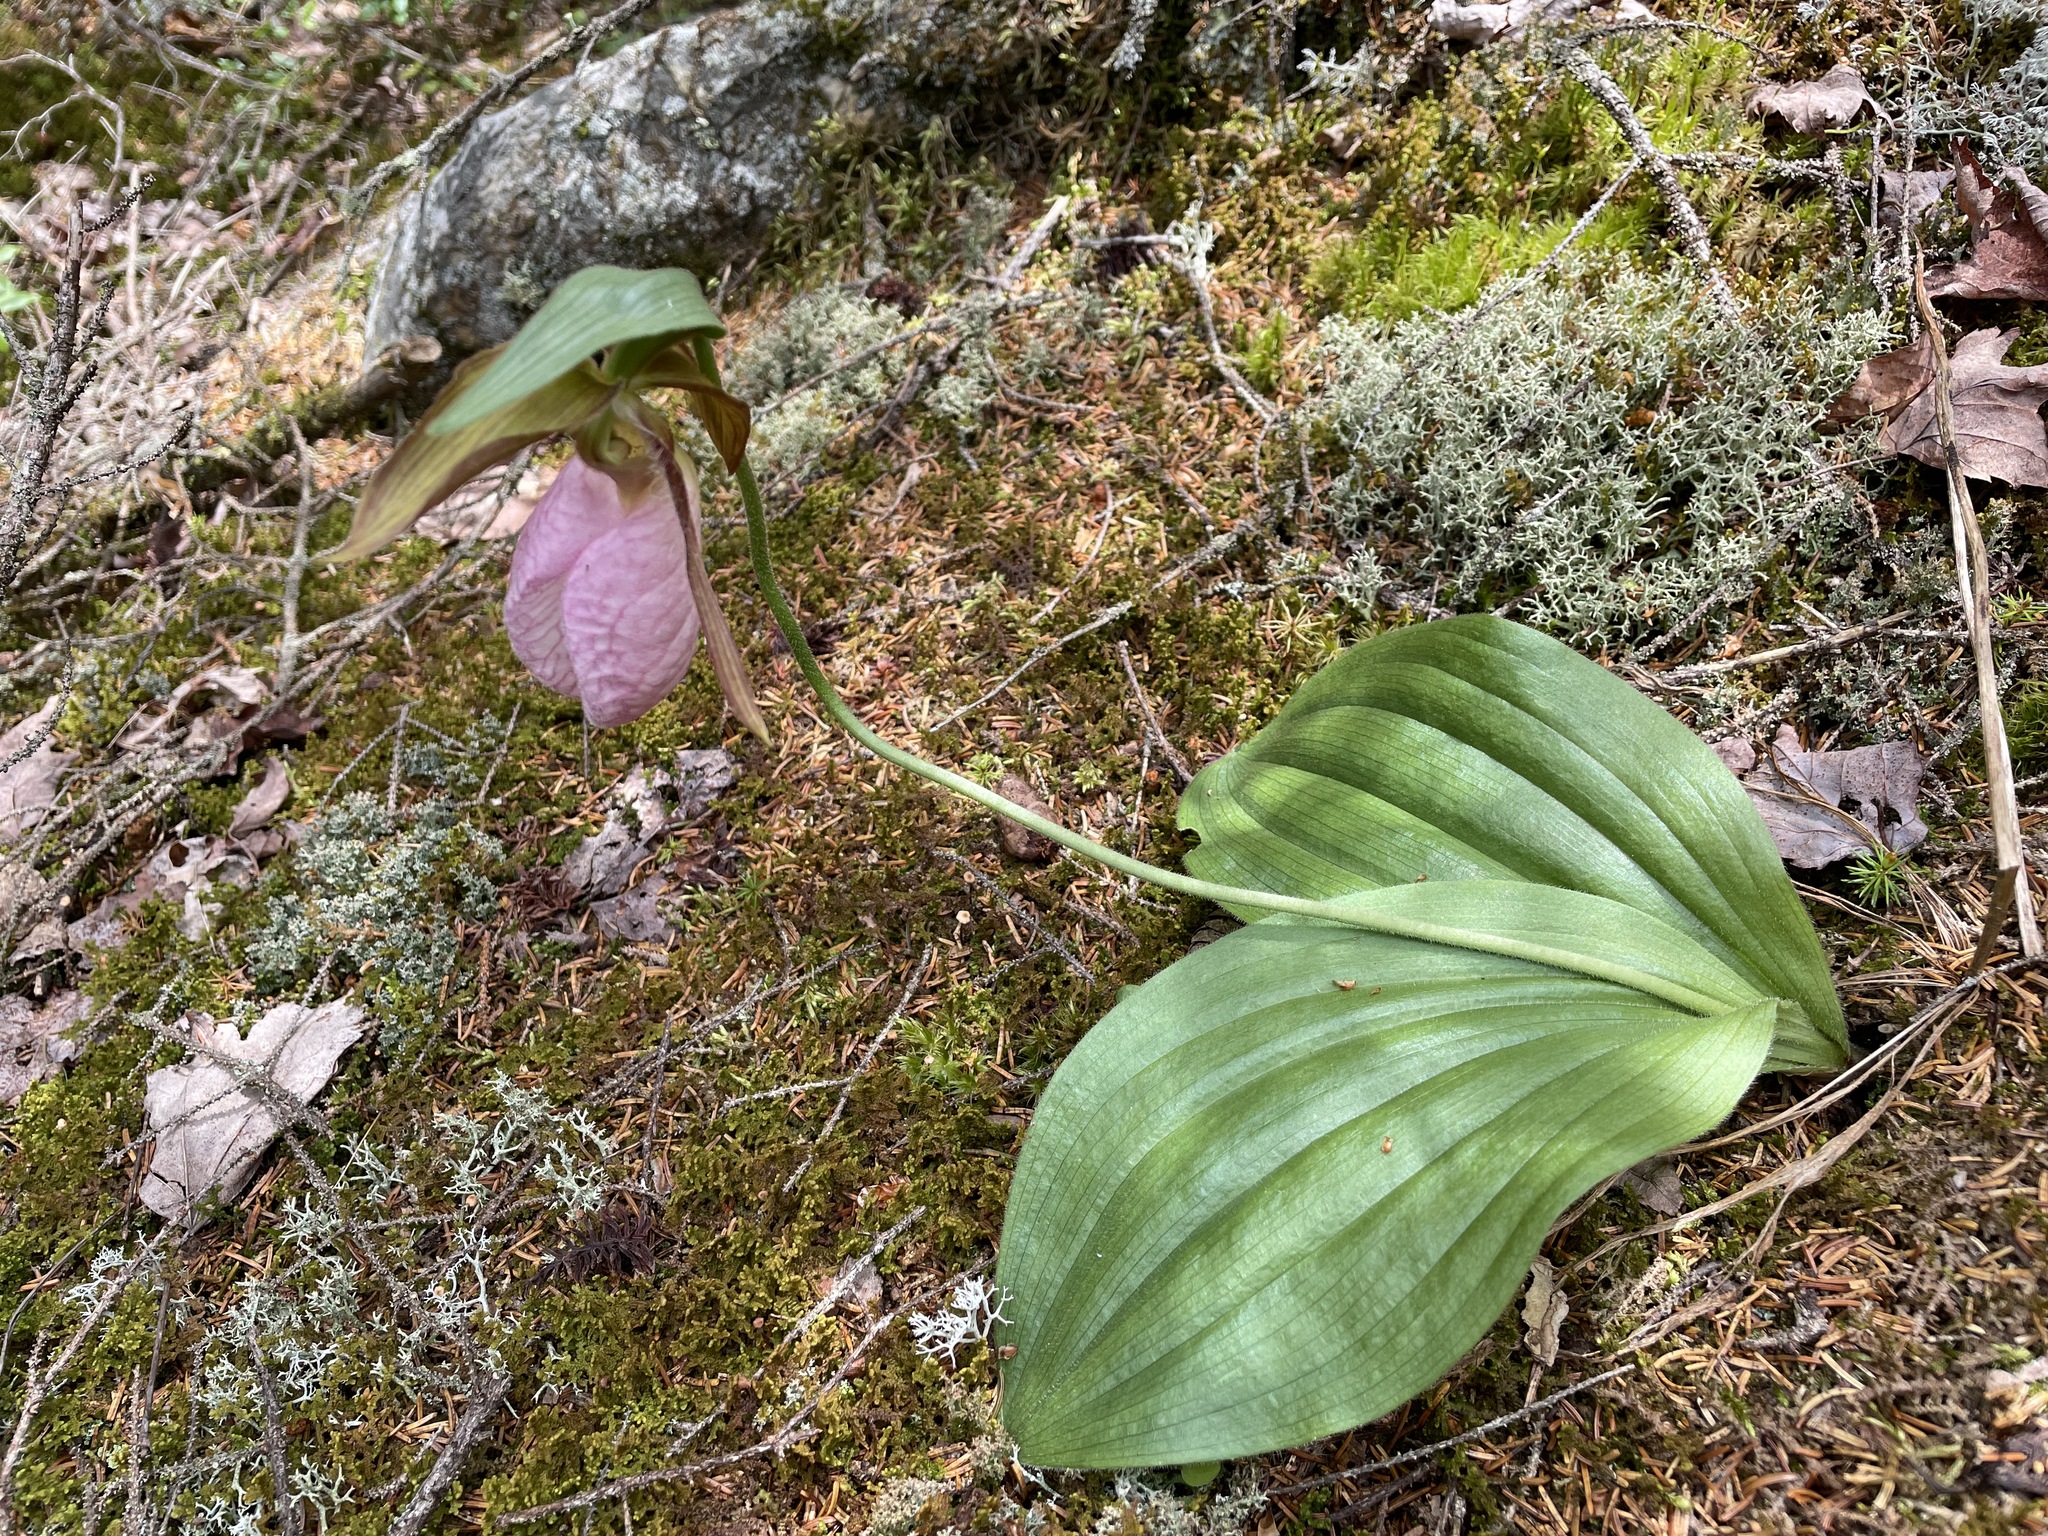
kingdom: Plantae
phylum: Tracheophyta
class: Liliopsida
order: Asparagales
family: Orchidaceae
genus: Cypripedium
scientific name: Cypripedium acaule
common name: Pink lady's-slipper
